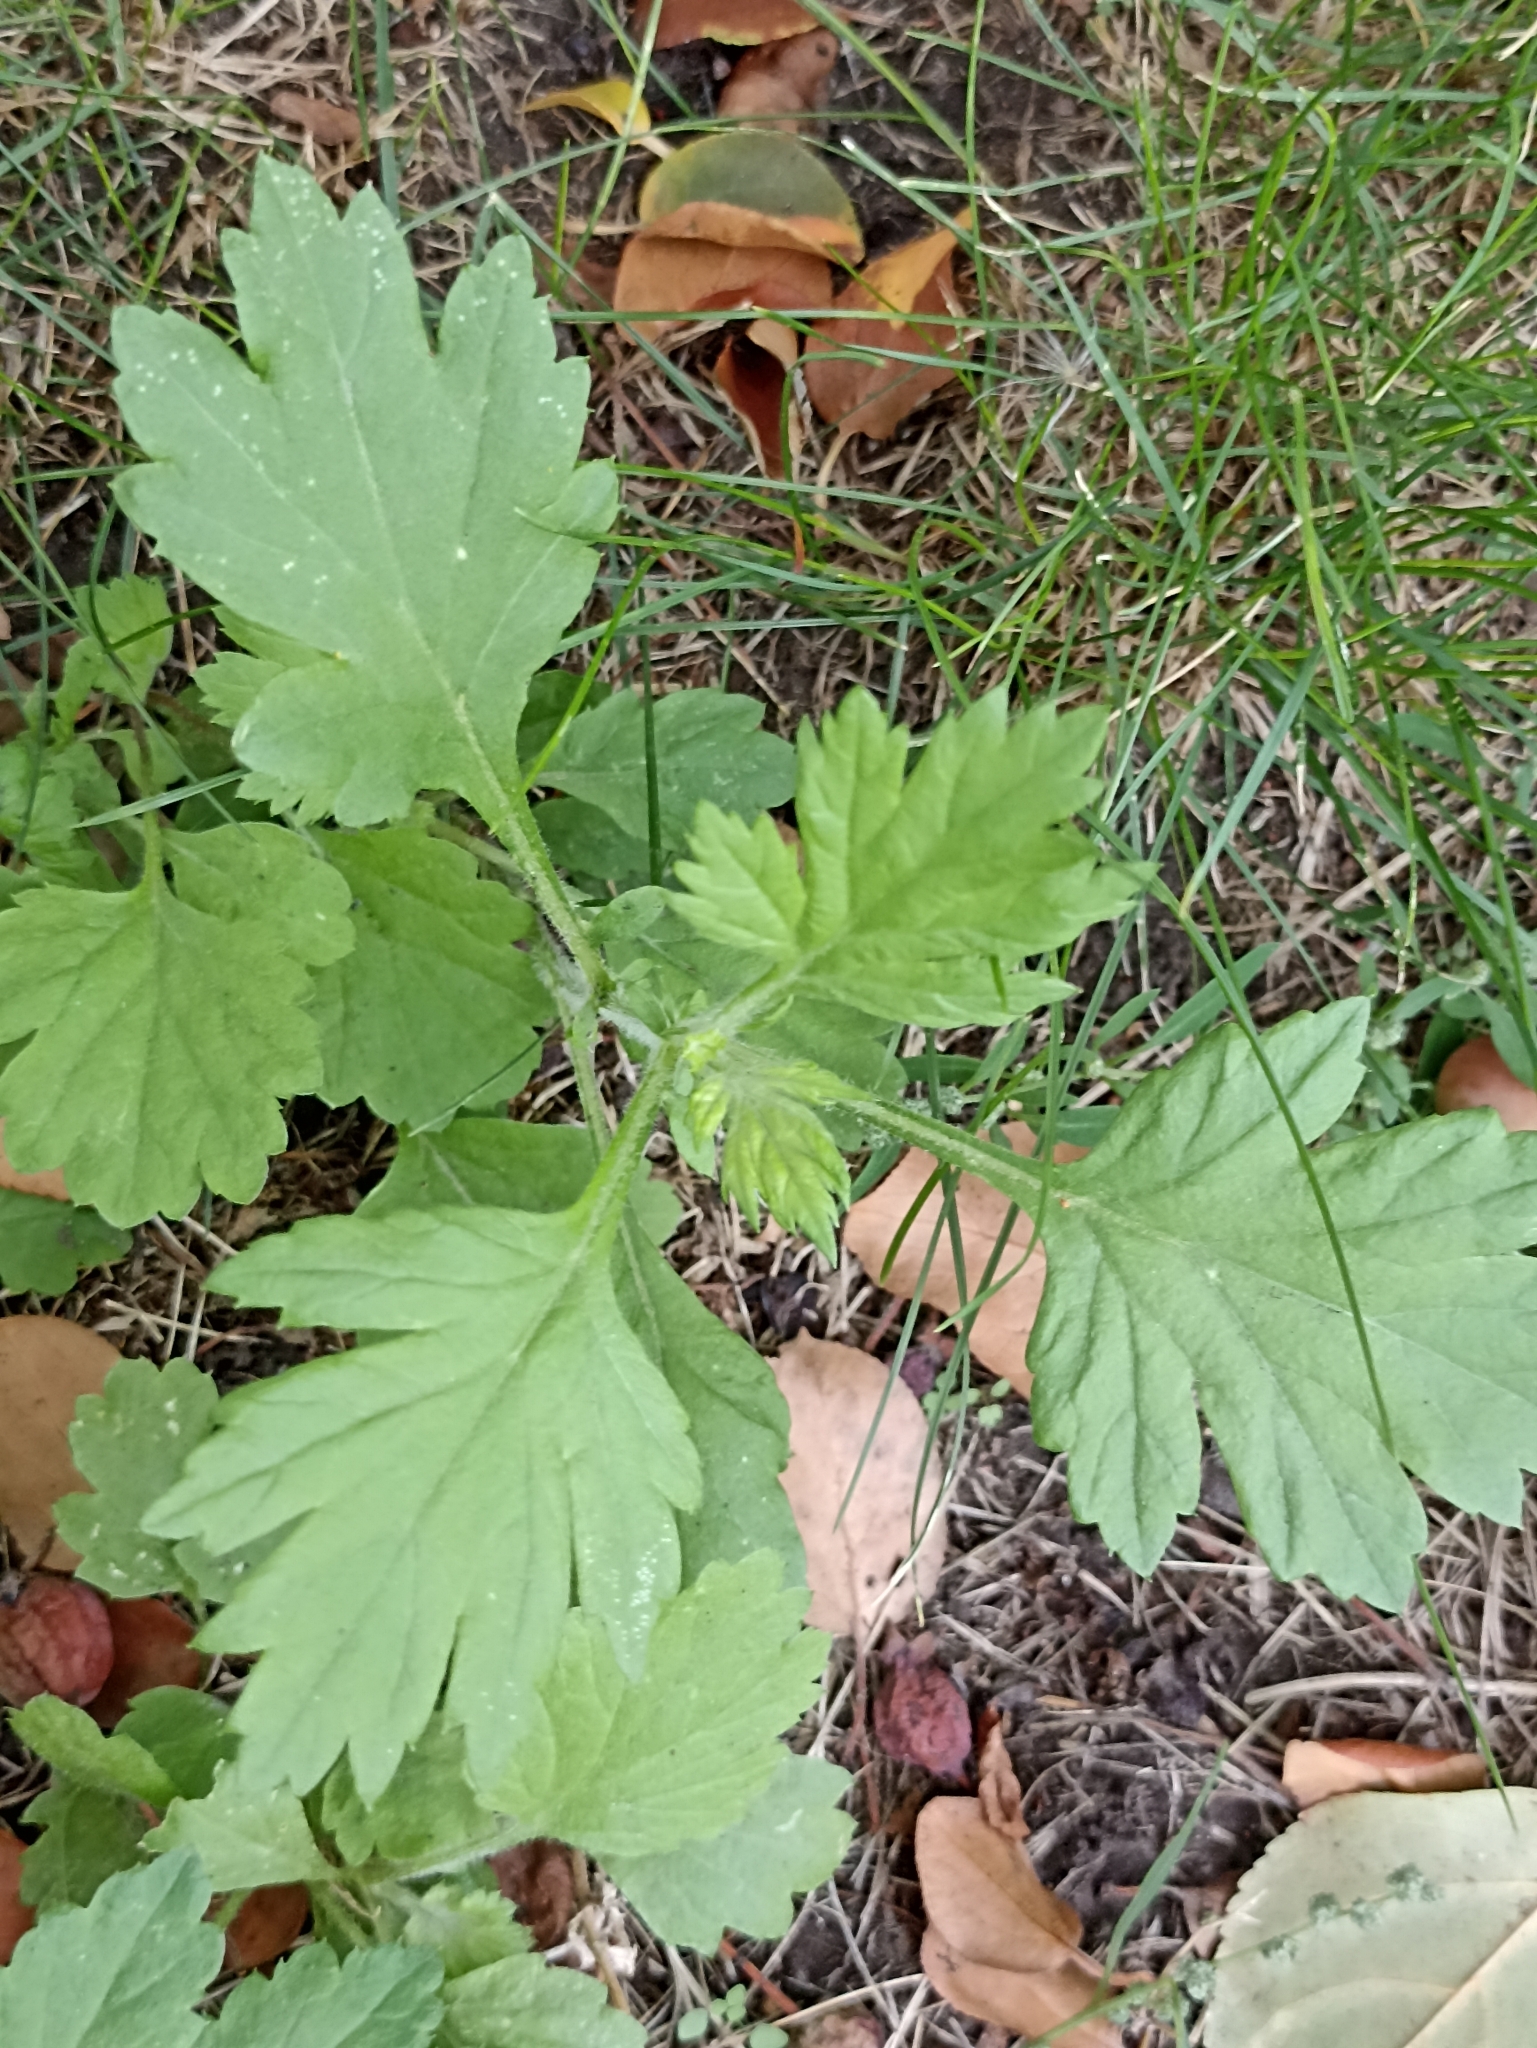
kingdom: Plantae
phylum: Tracheophyta
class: Magnoliopsida
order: Asterales
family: Asteraceae
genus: Artemisia
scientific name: Artemisia vulgaris
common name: Mugwort
